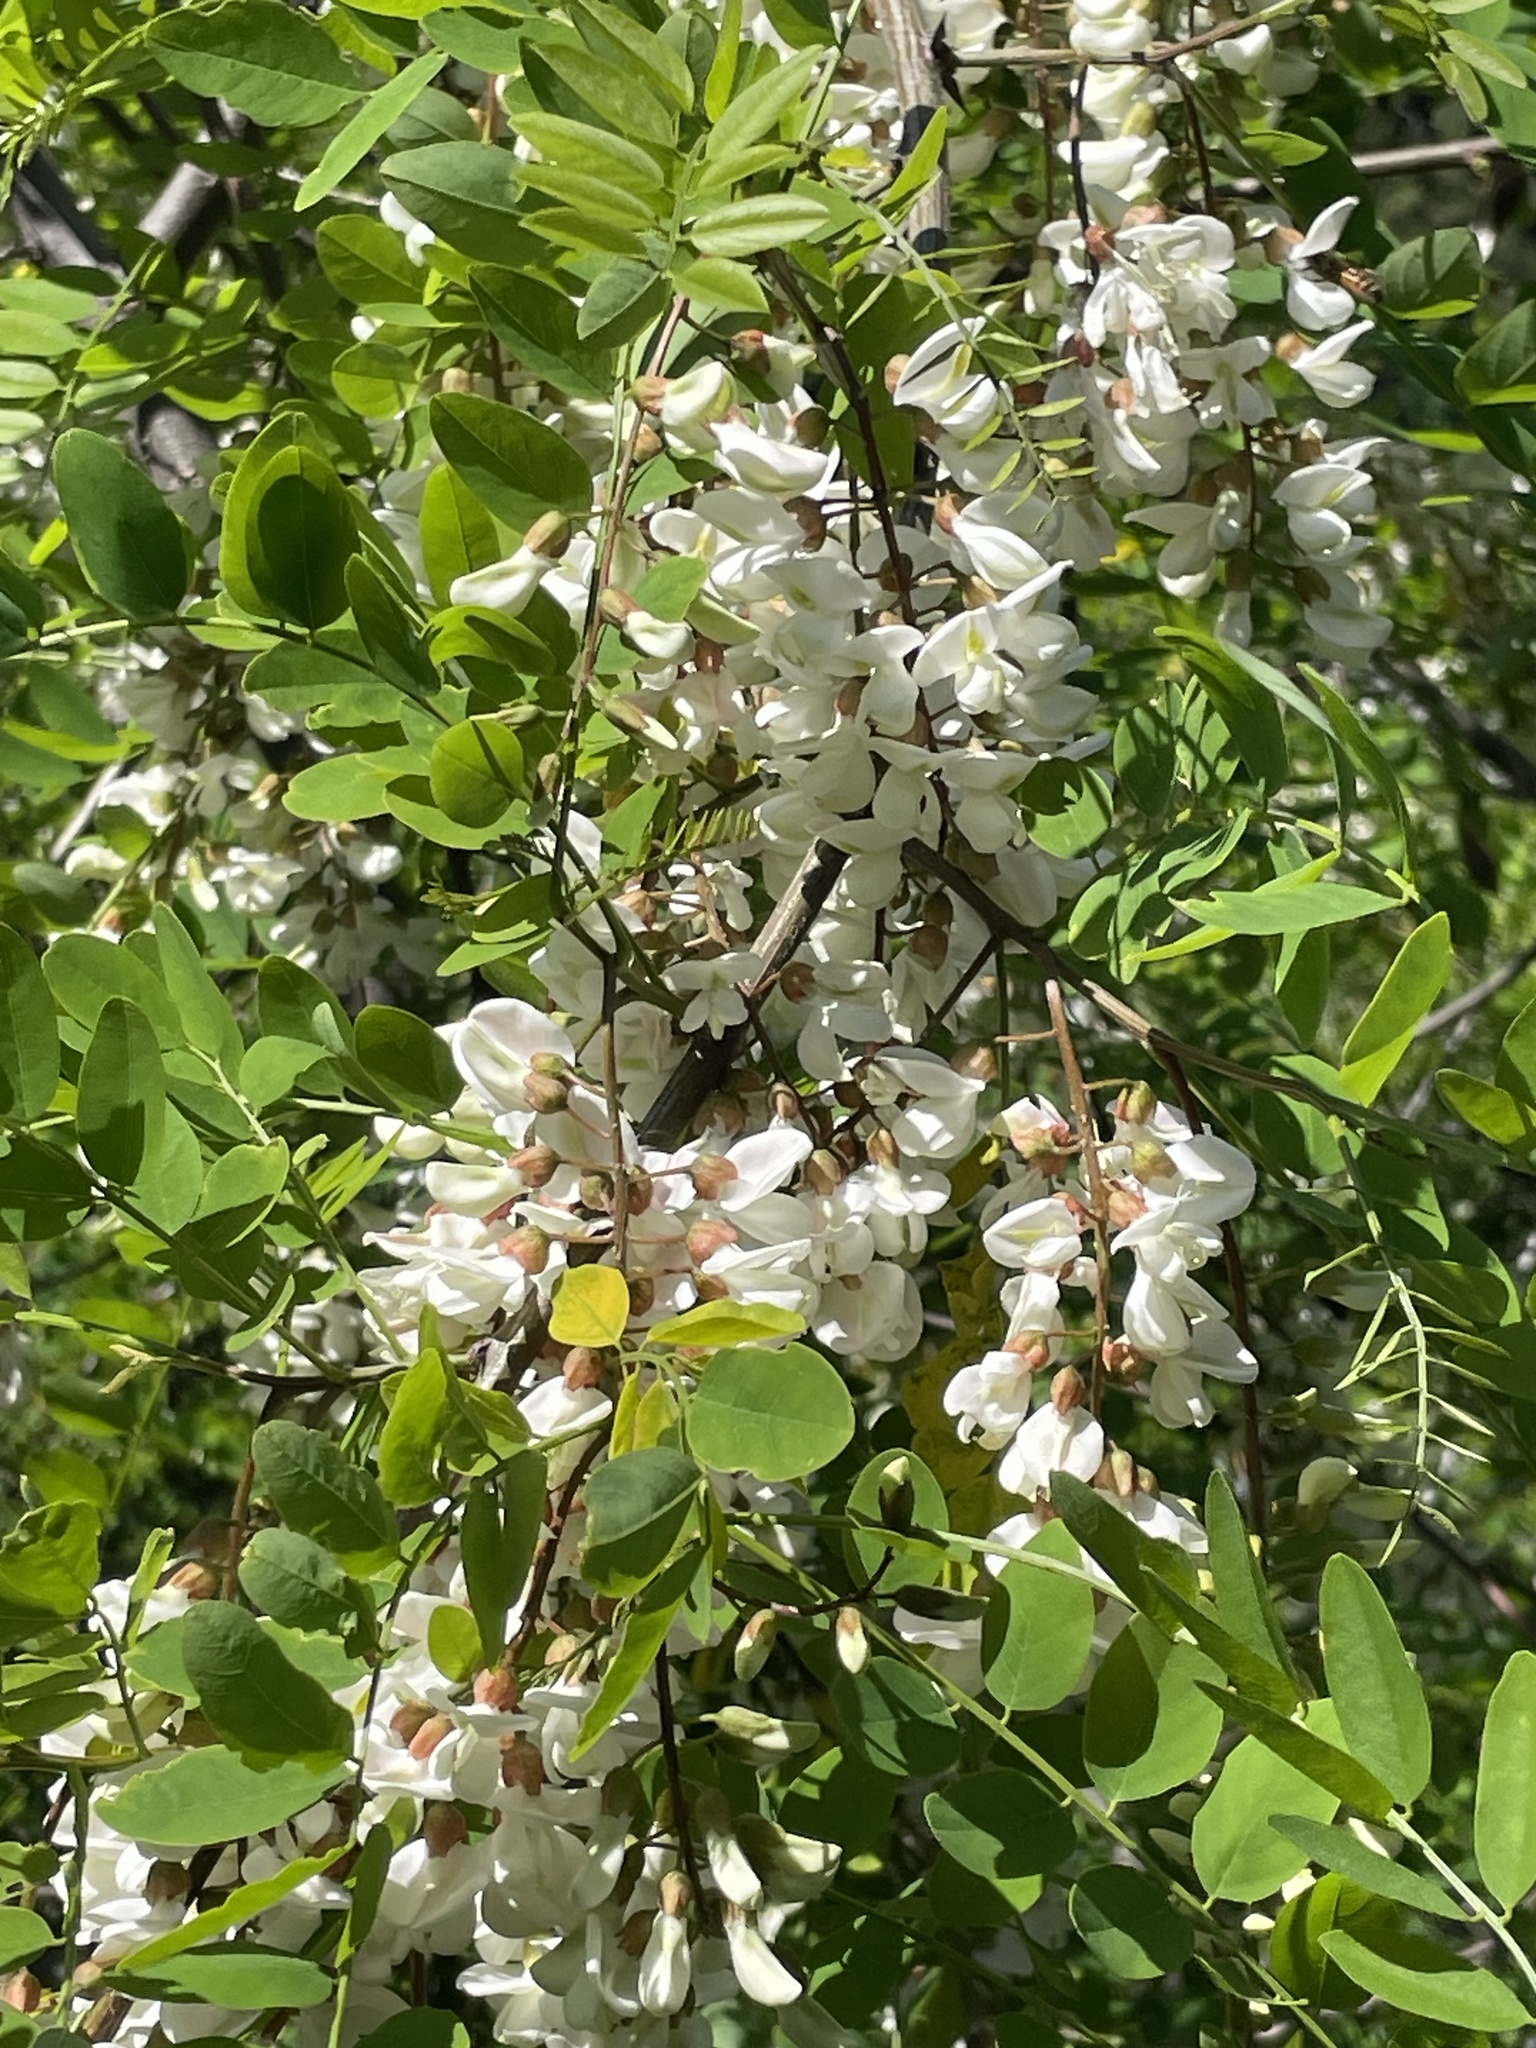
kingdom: Plantae
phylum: Tracheophyta
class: Magnoliopsida
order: Fabales
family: Fabaceae
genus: Robinia
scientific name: Robinia pseudoacacia
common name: Black locust
